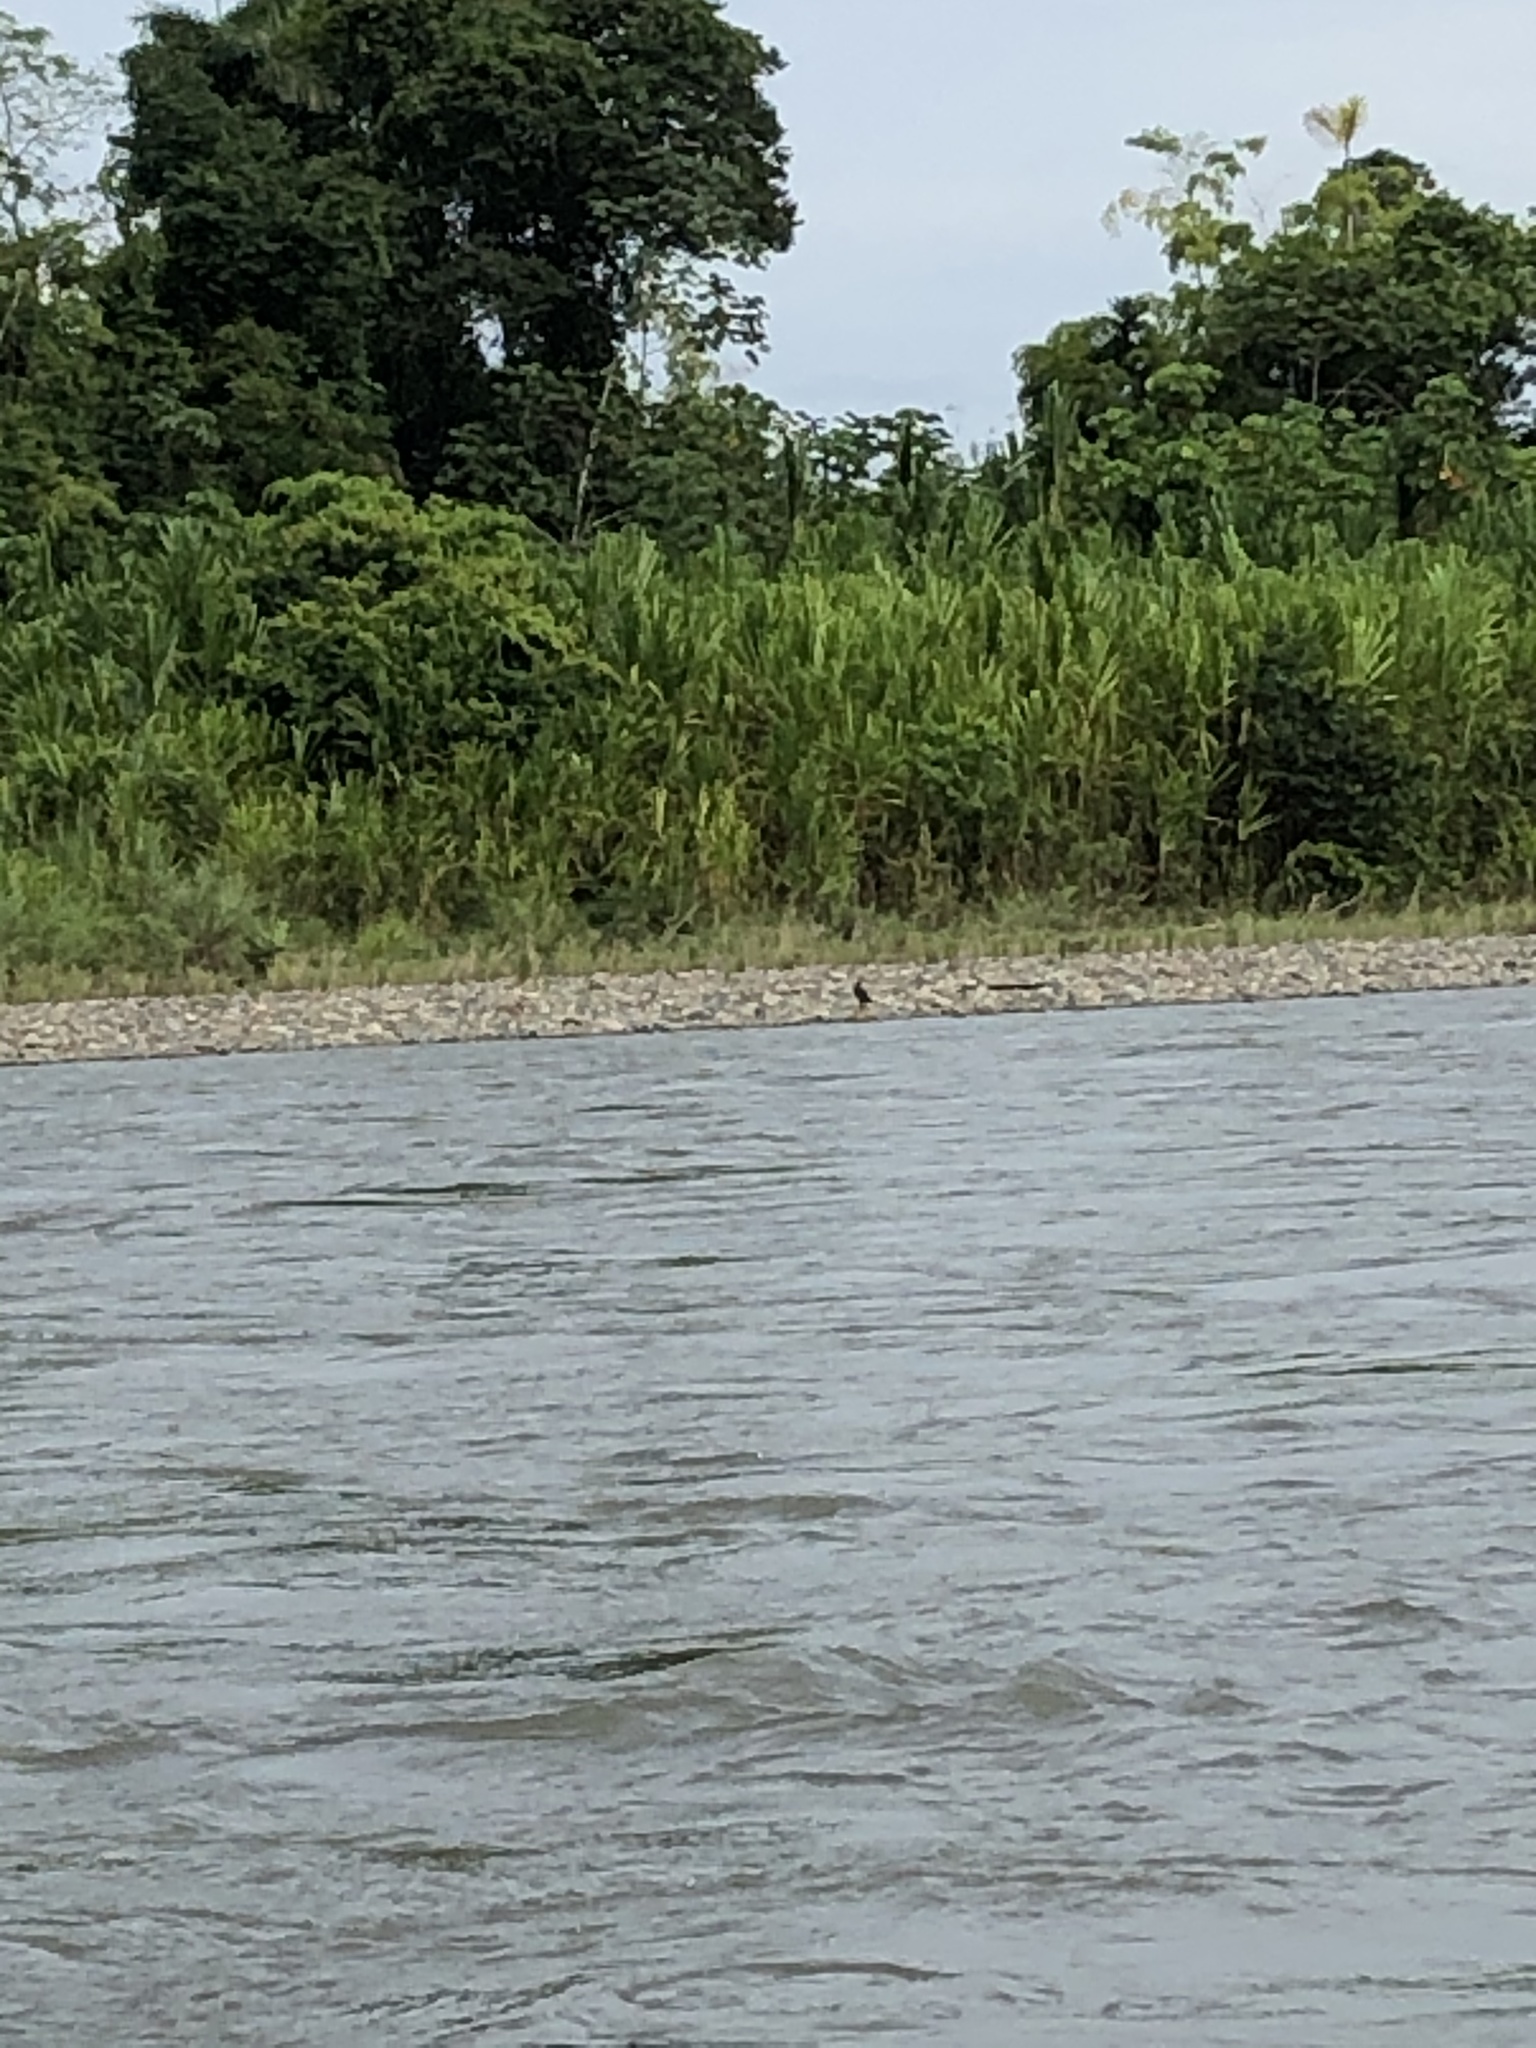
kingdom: Plantae
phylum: Tracheophyta
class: Liliopsida
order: Poales
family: Poaceae
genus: Gynerium
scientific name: Gynerium sagittatum
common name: Wild cane
